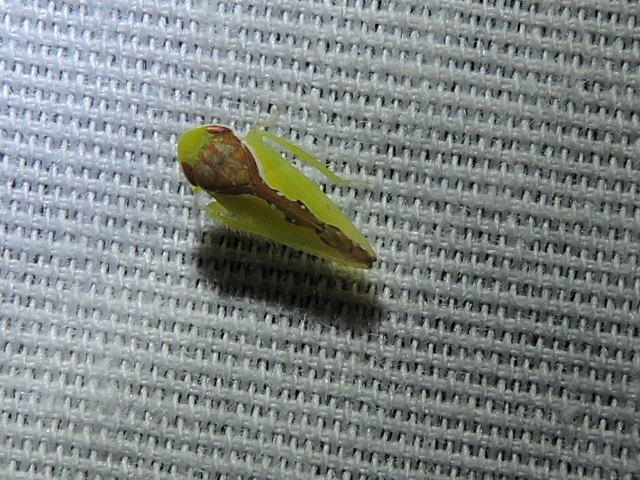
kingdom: Animalia
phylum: Arthropoda
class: Insecta
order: Hemiptera
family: Cicadellidae
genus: Omansobara ing
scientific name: Omansobara ing Omansobara palliolata
